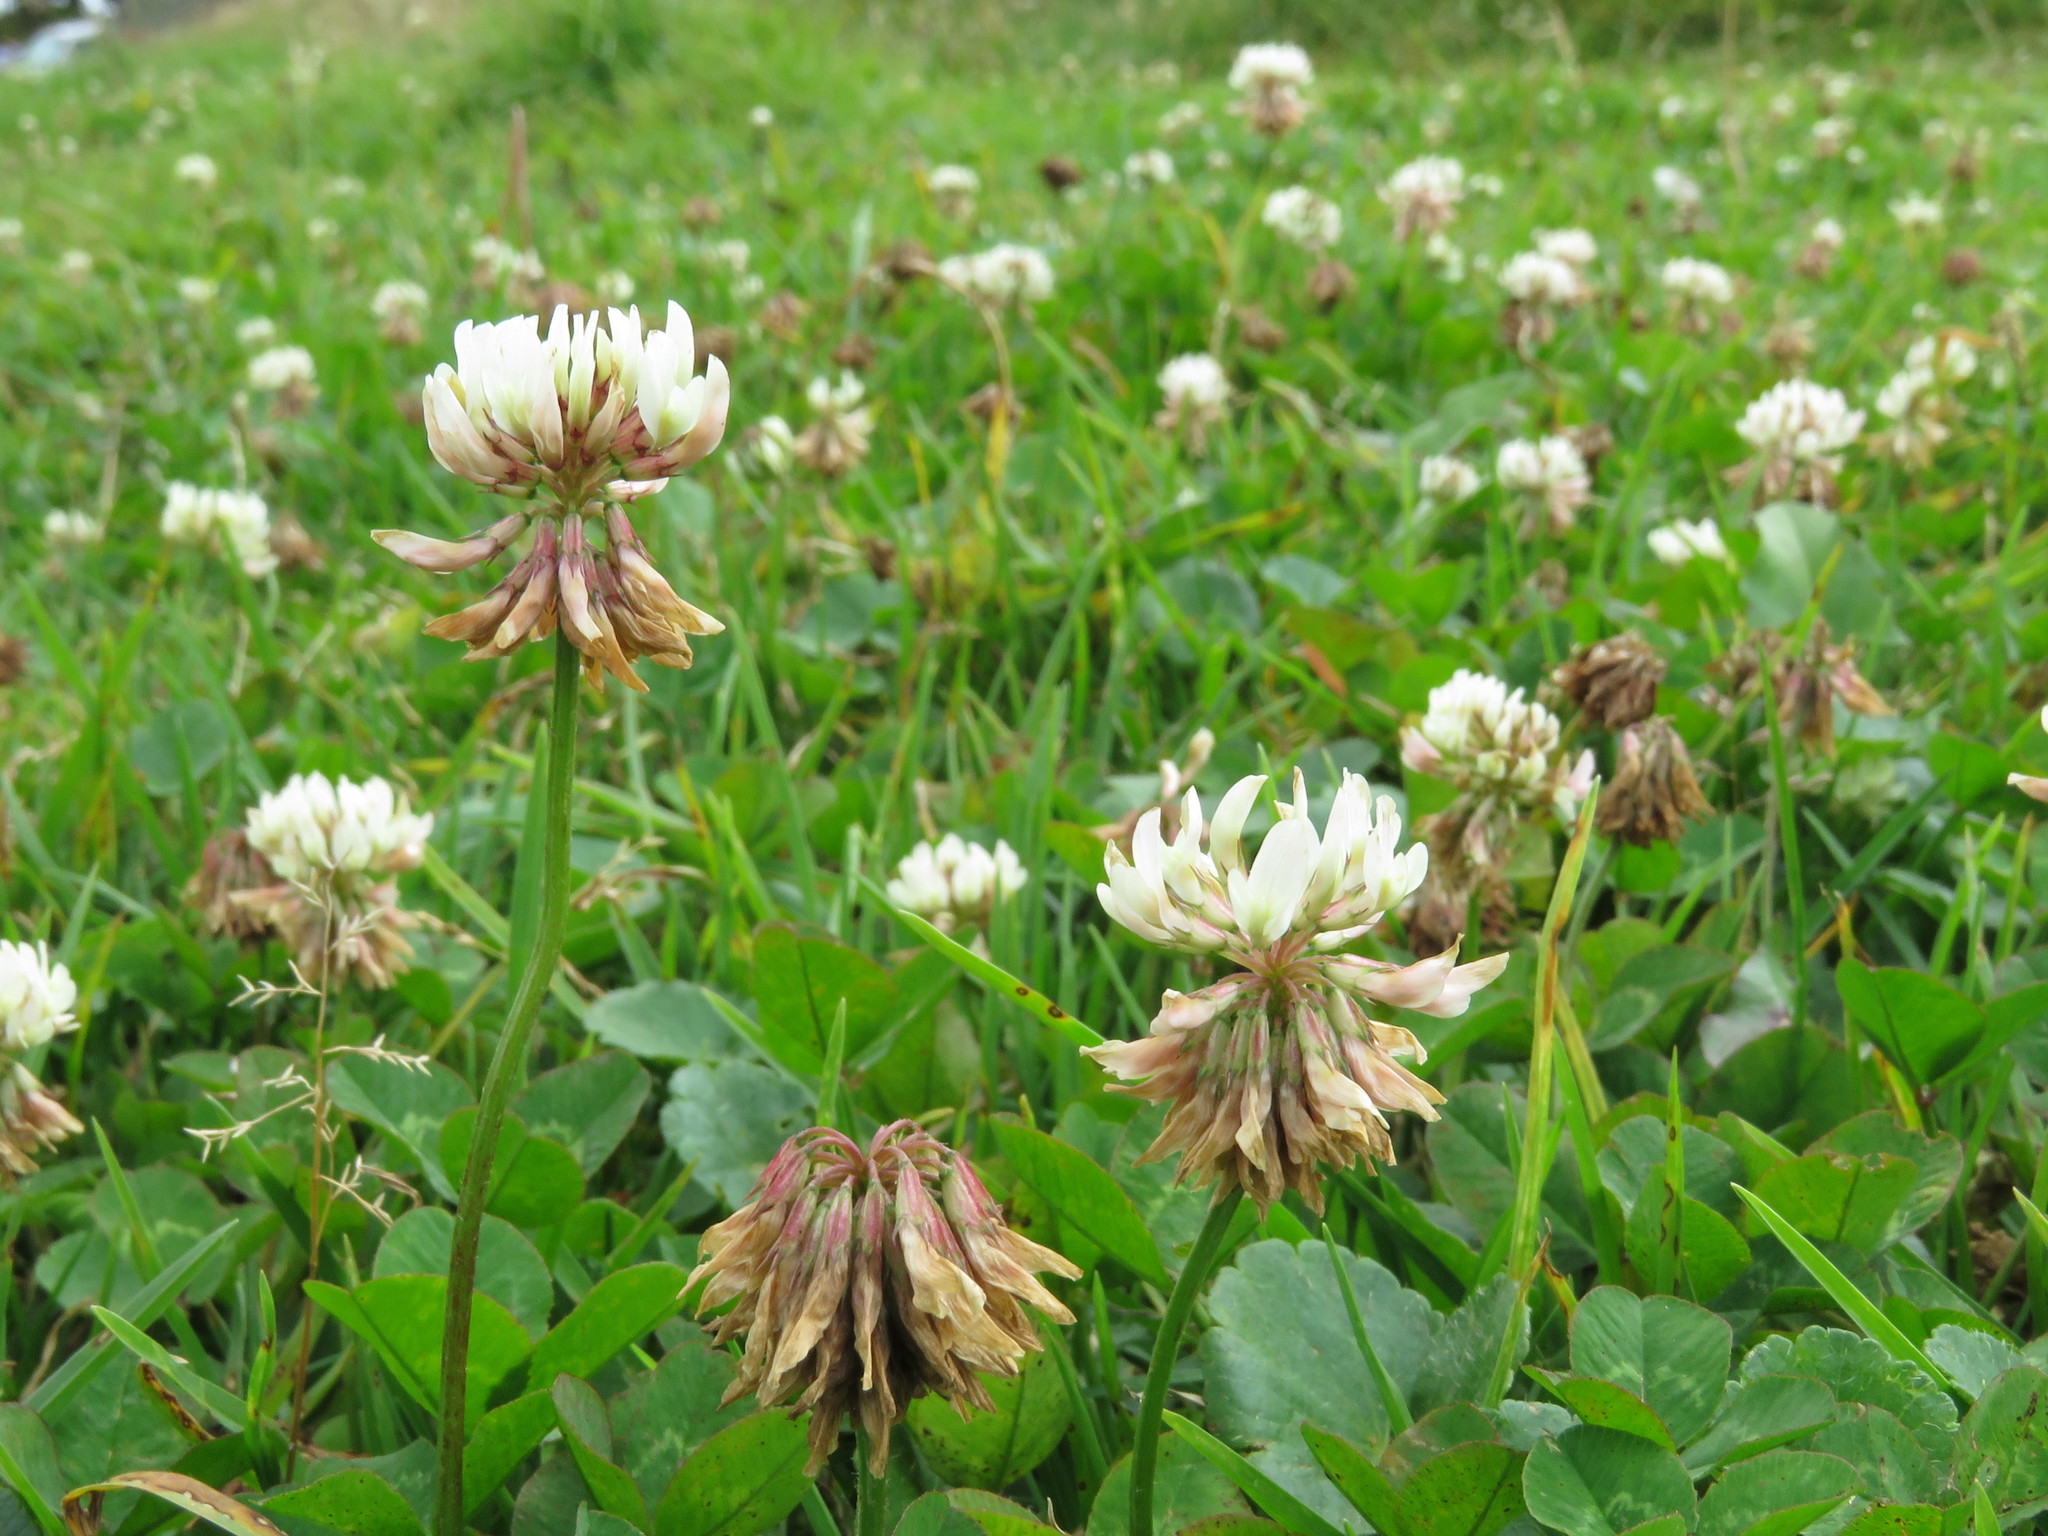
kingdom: Plantae
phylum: Tracheophyta
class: Magnoliopsida
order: Fabales
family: Fabaceae
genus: Trifolium
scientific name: Trifolium repens
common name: White clover
